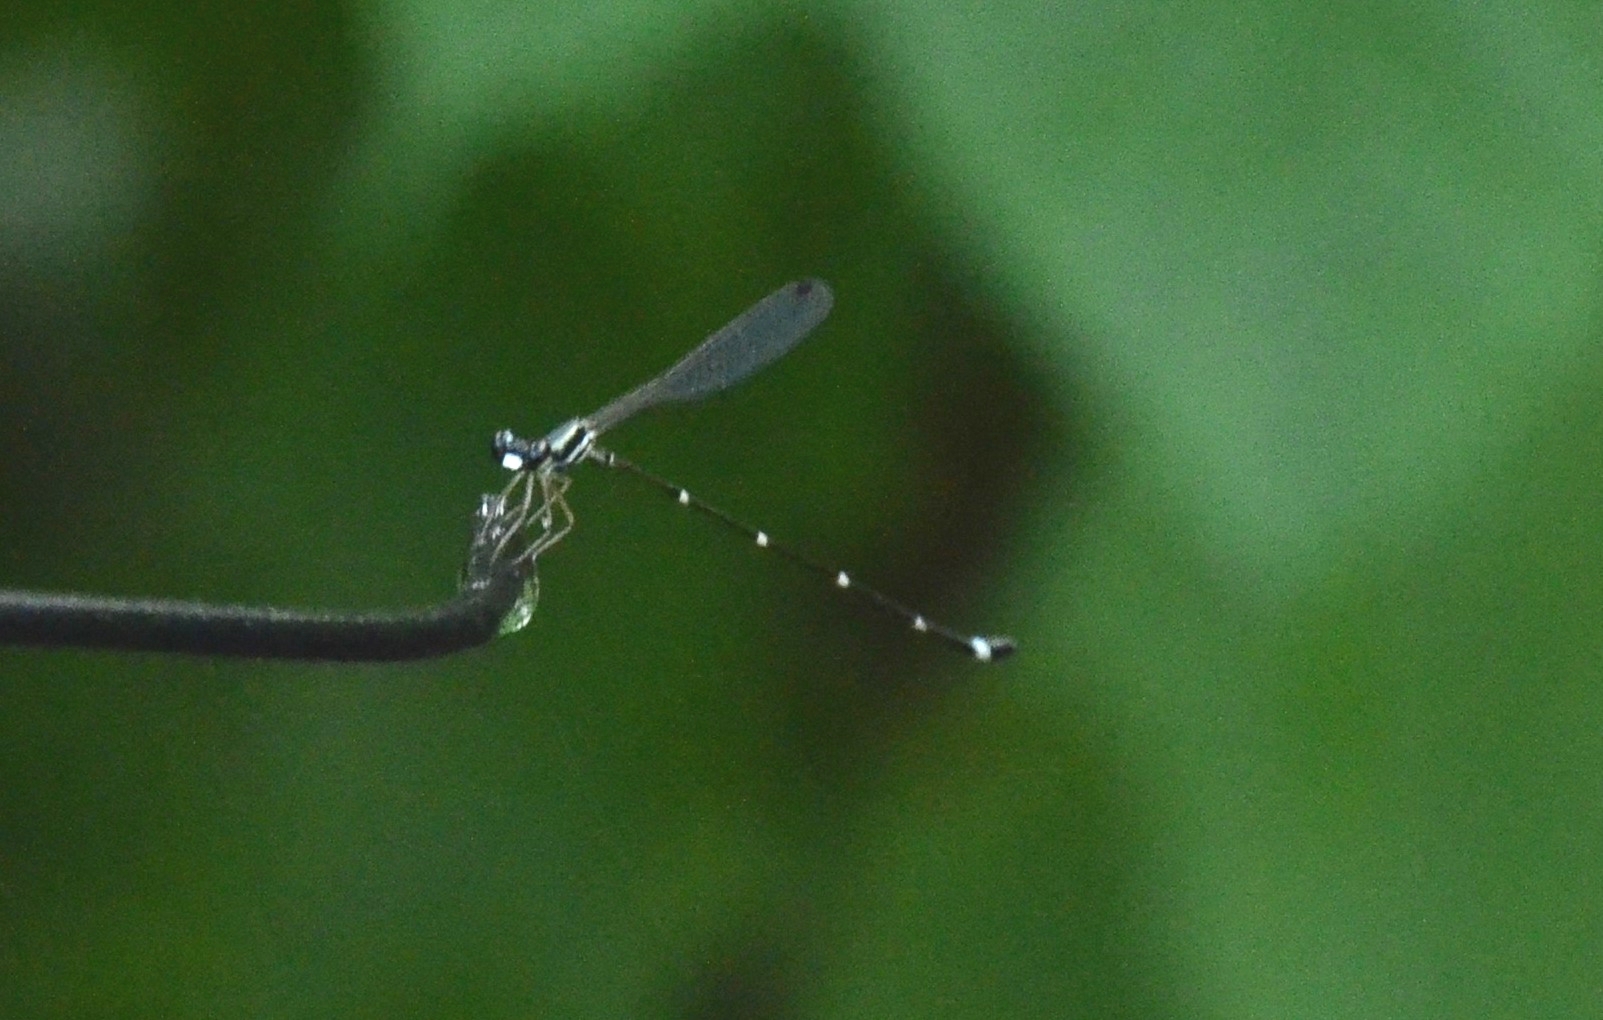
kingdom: Animalia
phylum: Arthropoda
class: Insecta
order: Odonata
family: Platystictidae
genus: Protosticta
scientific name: Protosticta sanguinostigma
